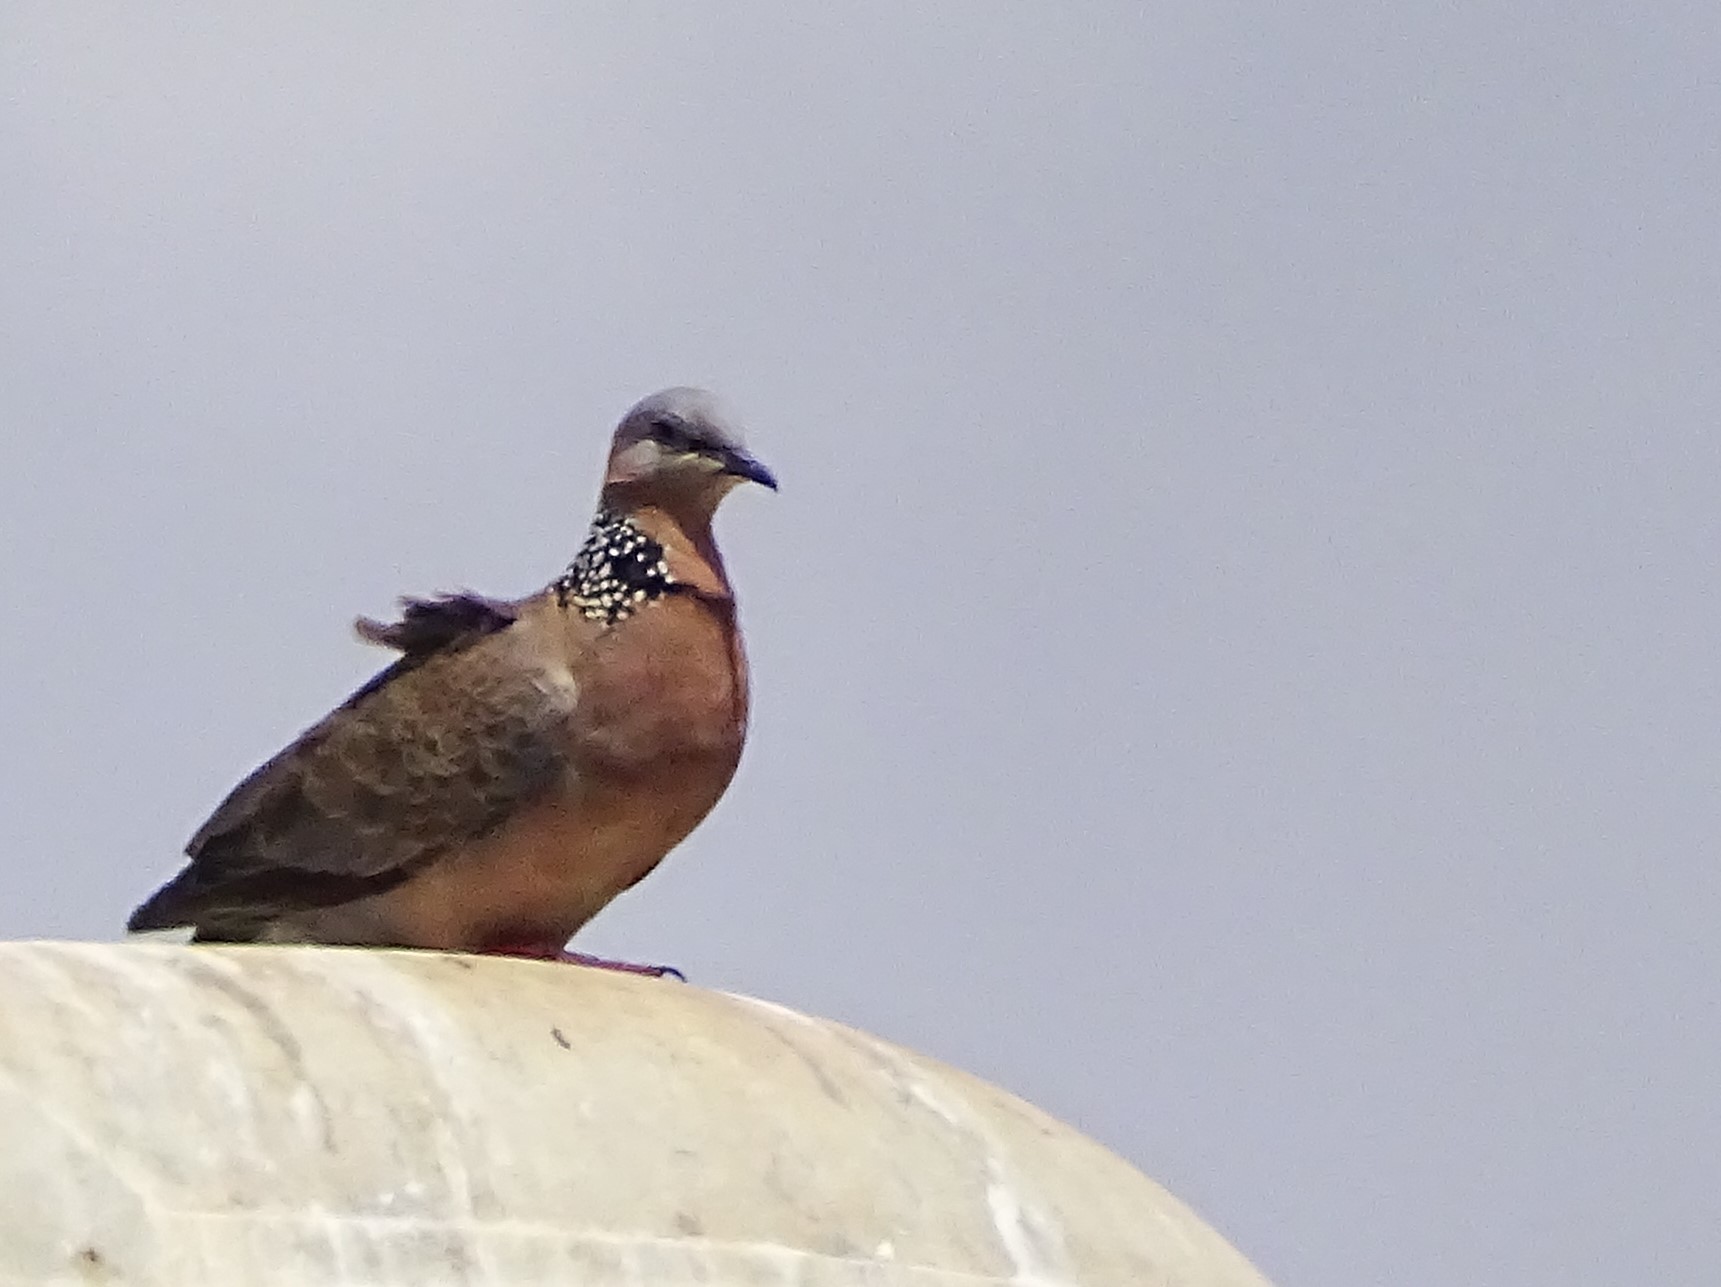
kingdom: Animalia
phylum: Chordata
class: Aves
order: Columbiformes
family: Columbidae
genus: Spilopelia
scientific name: Spilopelia chinensis
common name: Spotted dove
